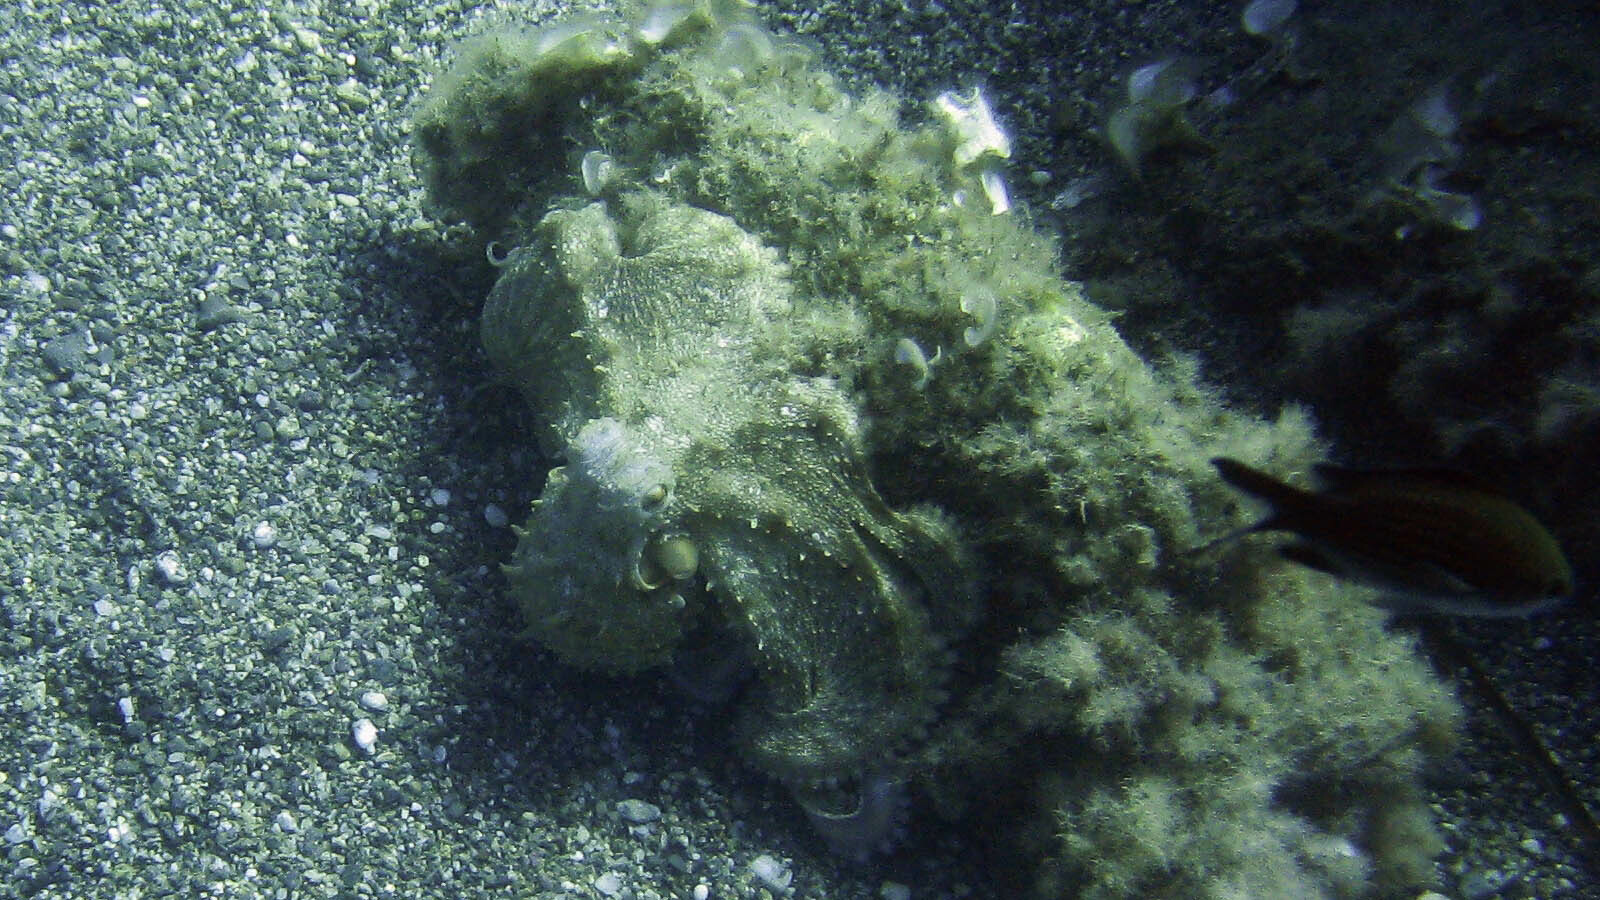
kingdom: Animalia
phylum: Mollusca
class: Cephalopoda
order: Octopoda
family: Octopodidae
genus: Octopus
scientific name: Octopus vulgaris
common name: Common octopus
